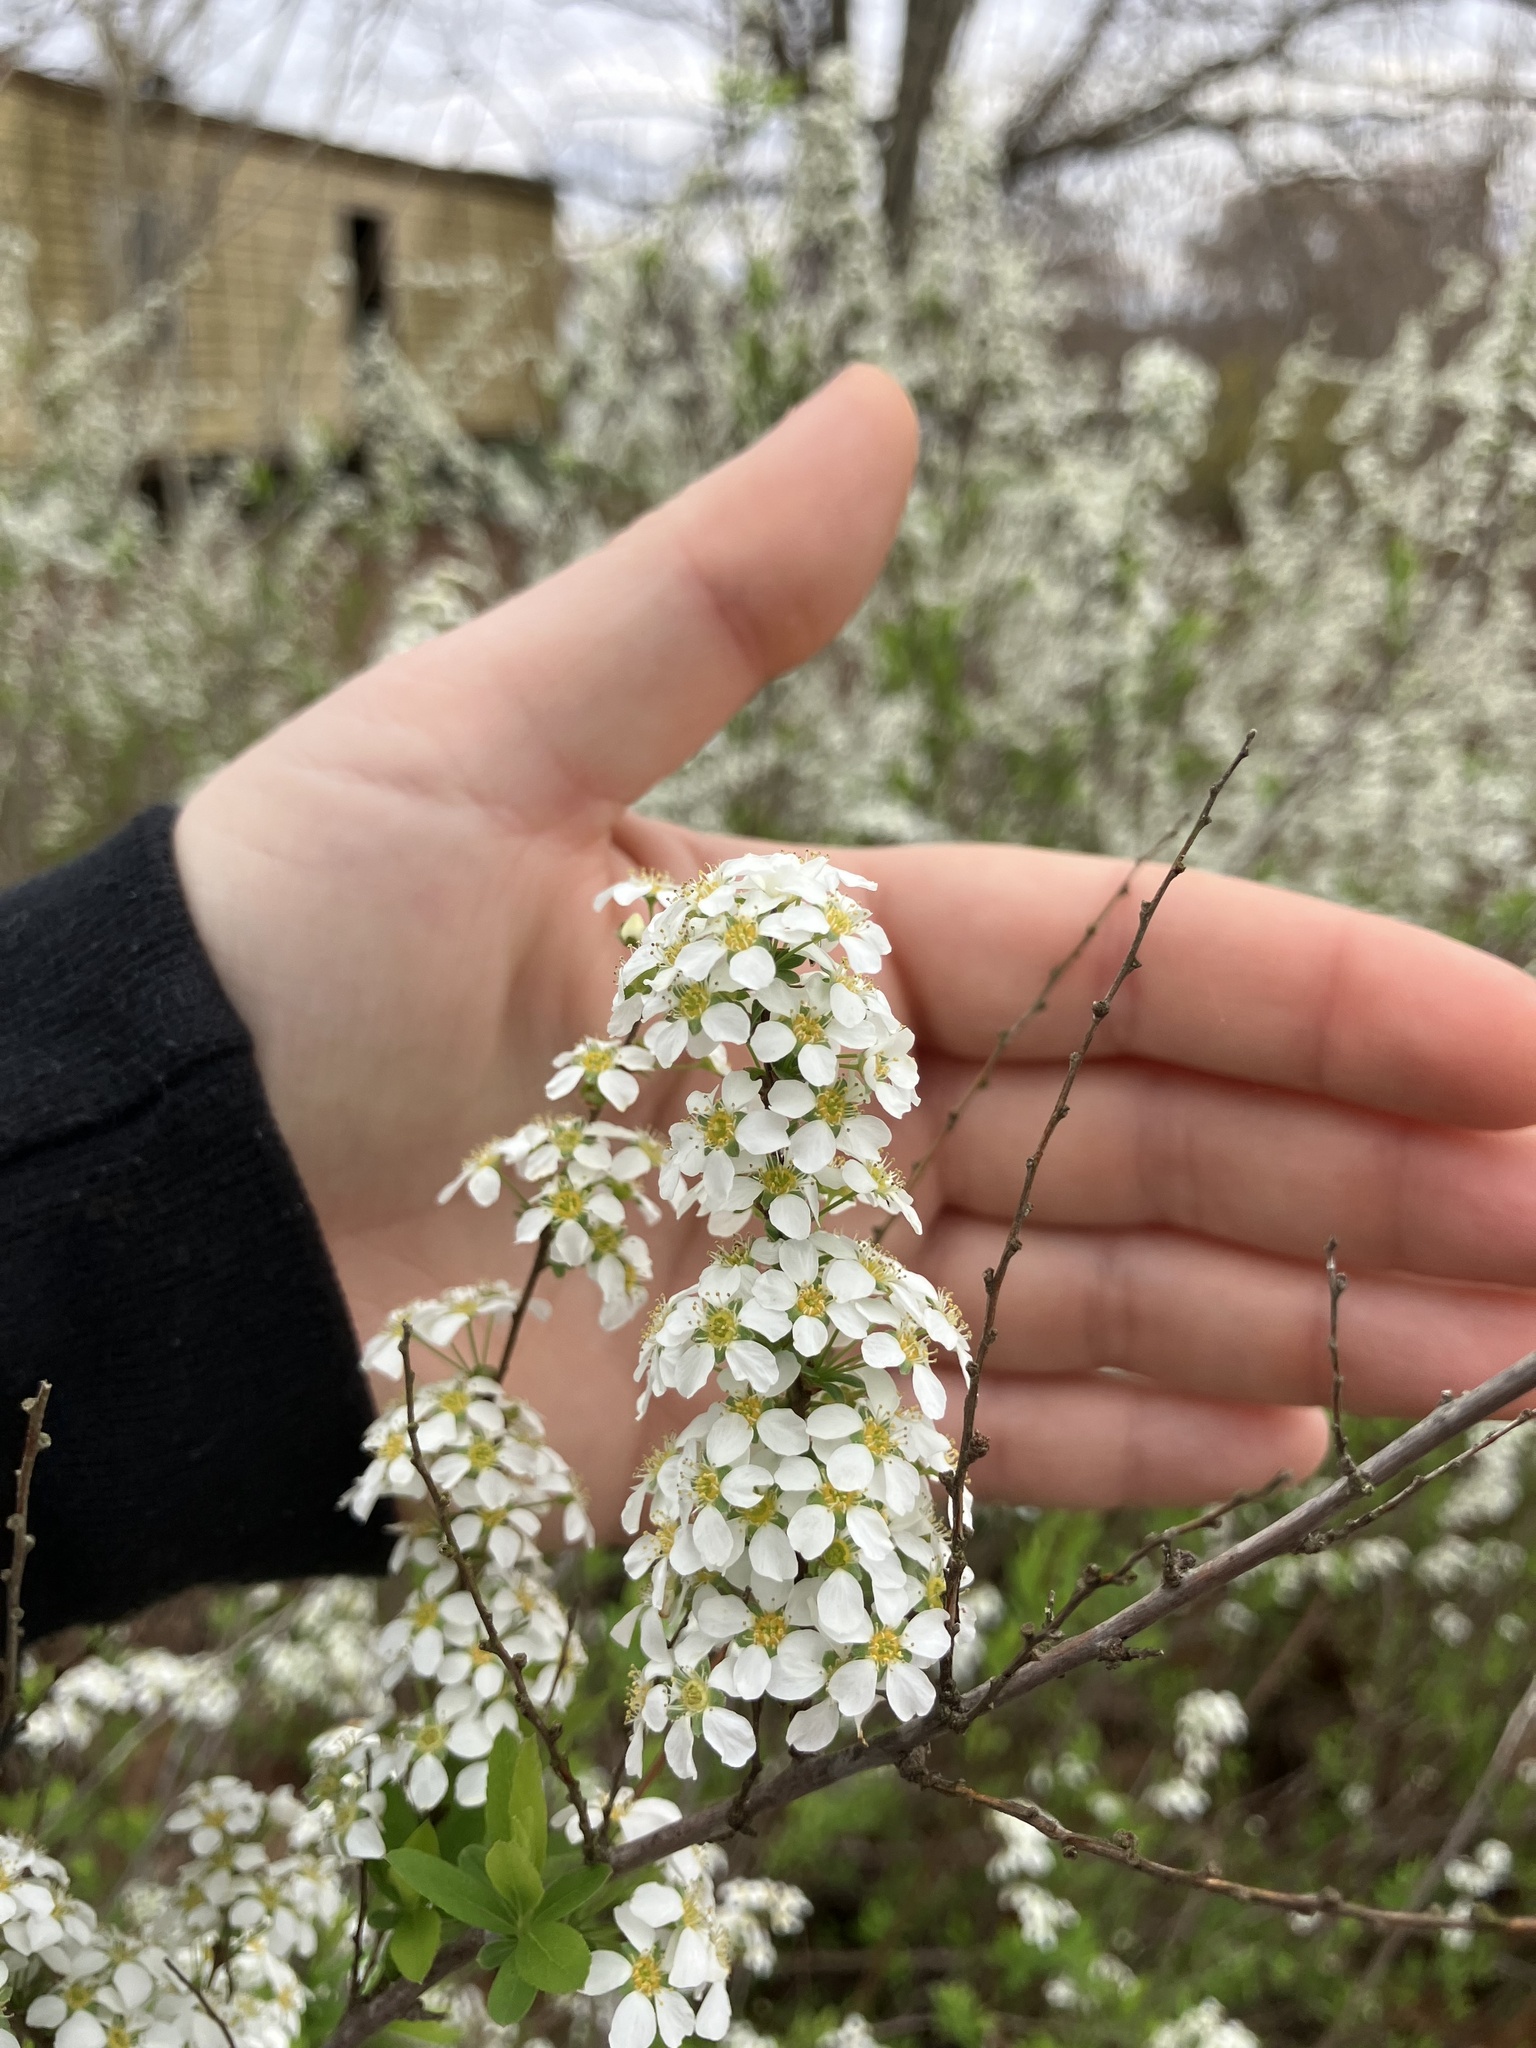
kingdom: Plantae
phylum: Tracheophyta
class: Magnoliopsida
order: Rosales
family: Rosaceae
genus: Spiraea
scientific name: Spiraea thunbergii
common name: Thunberg's meadowsweet
